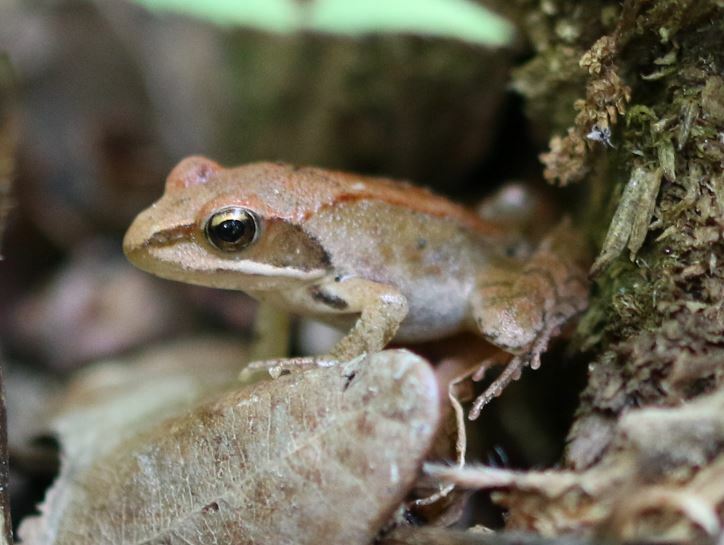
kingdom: Animalia
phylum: Chordata
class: Amphibia
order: Anura
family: Ranidae
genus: Rana
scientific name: Rana dalmatina
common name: Agile frog
